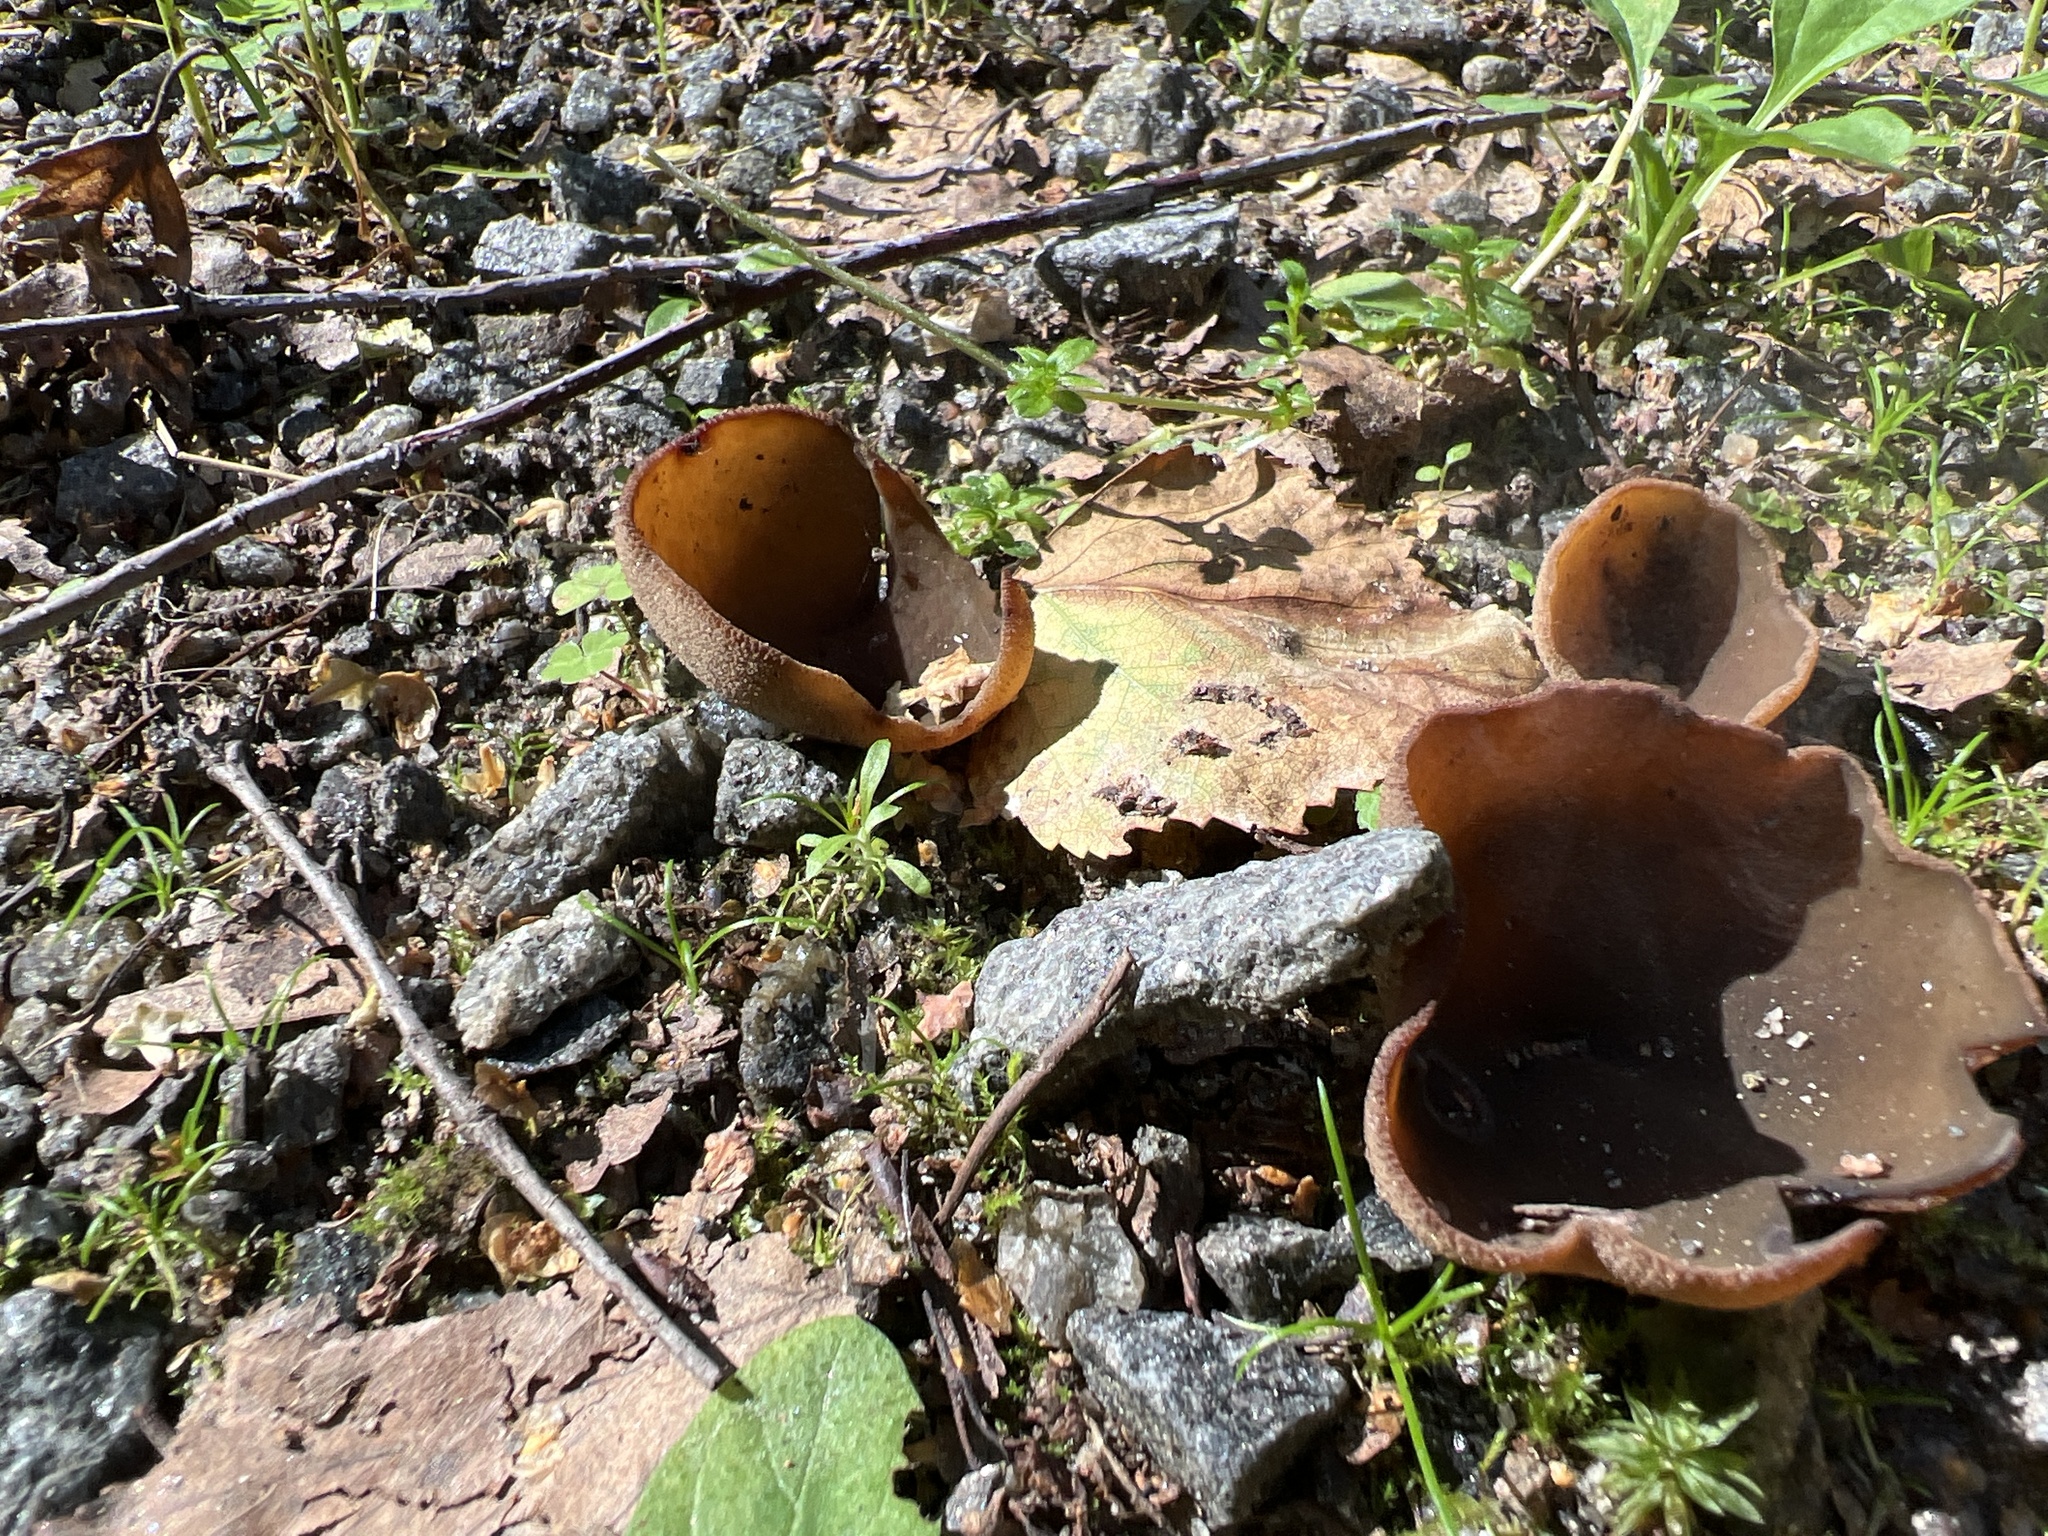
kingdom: Fungi
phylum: Ascomycota
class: Pezizomycetes
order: Pezizales
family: Otideaceae
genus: Otidea
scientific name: Otidea onotica
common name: Hare's ear
